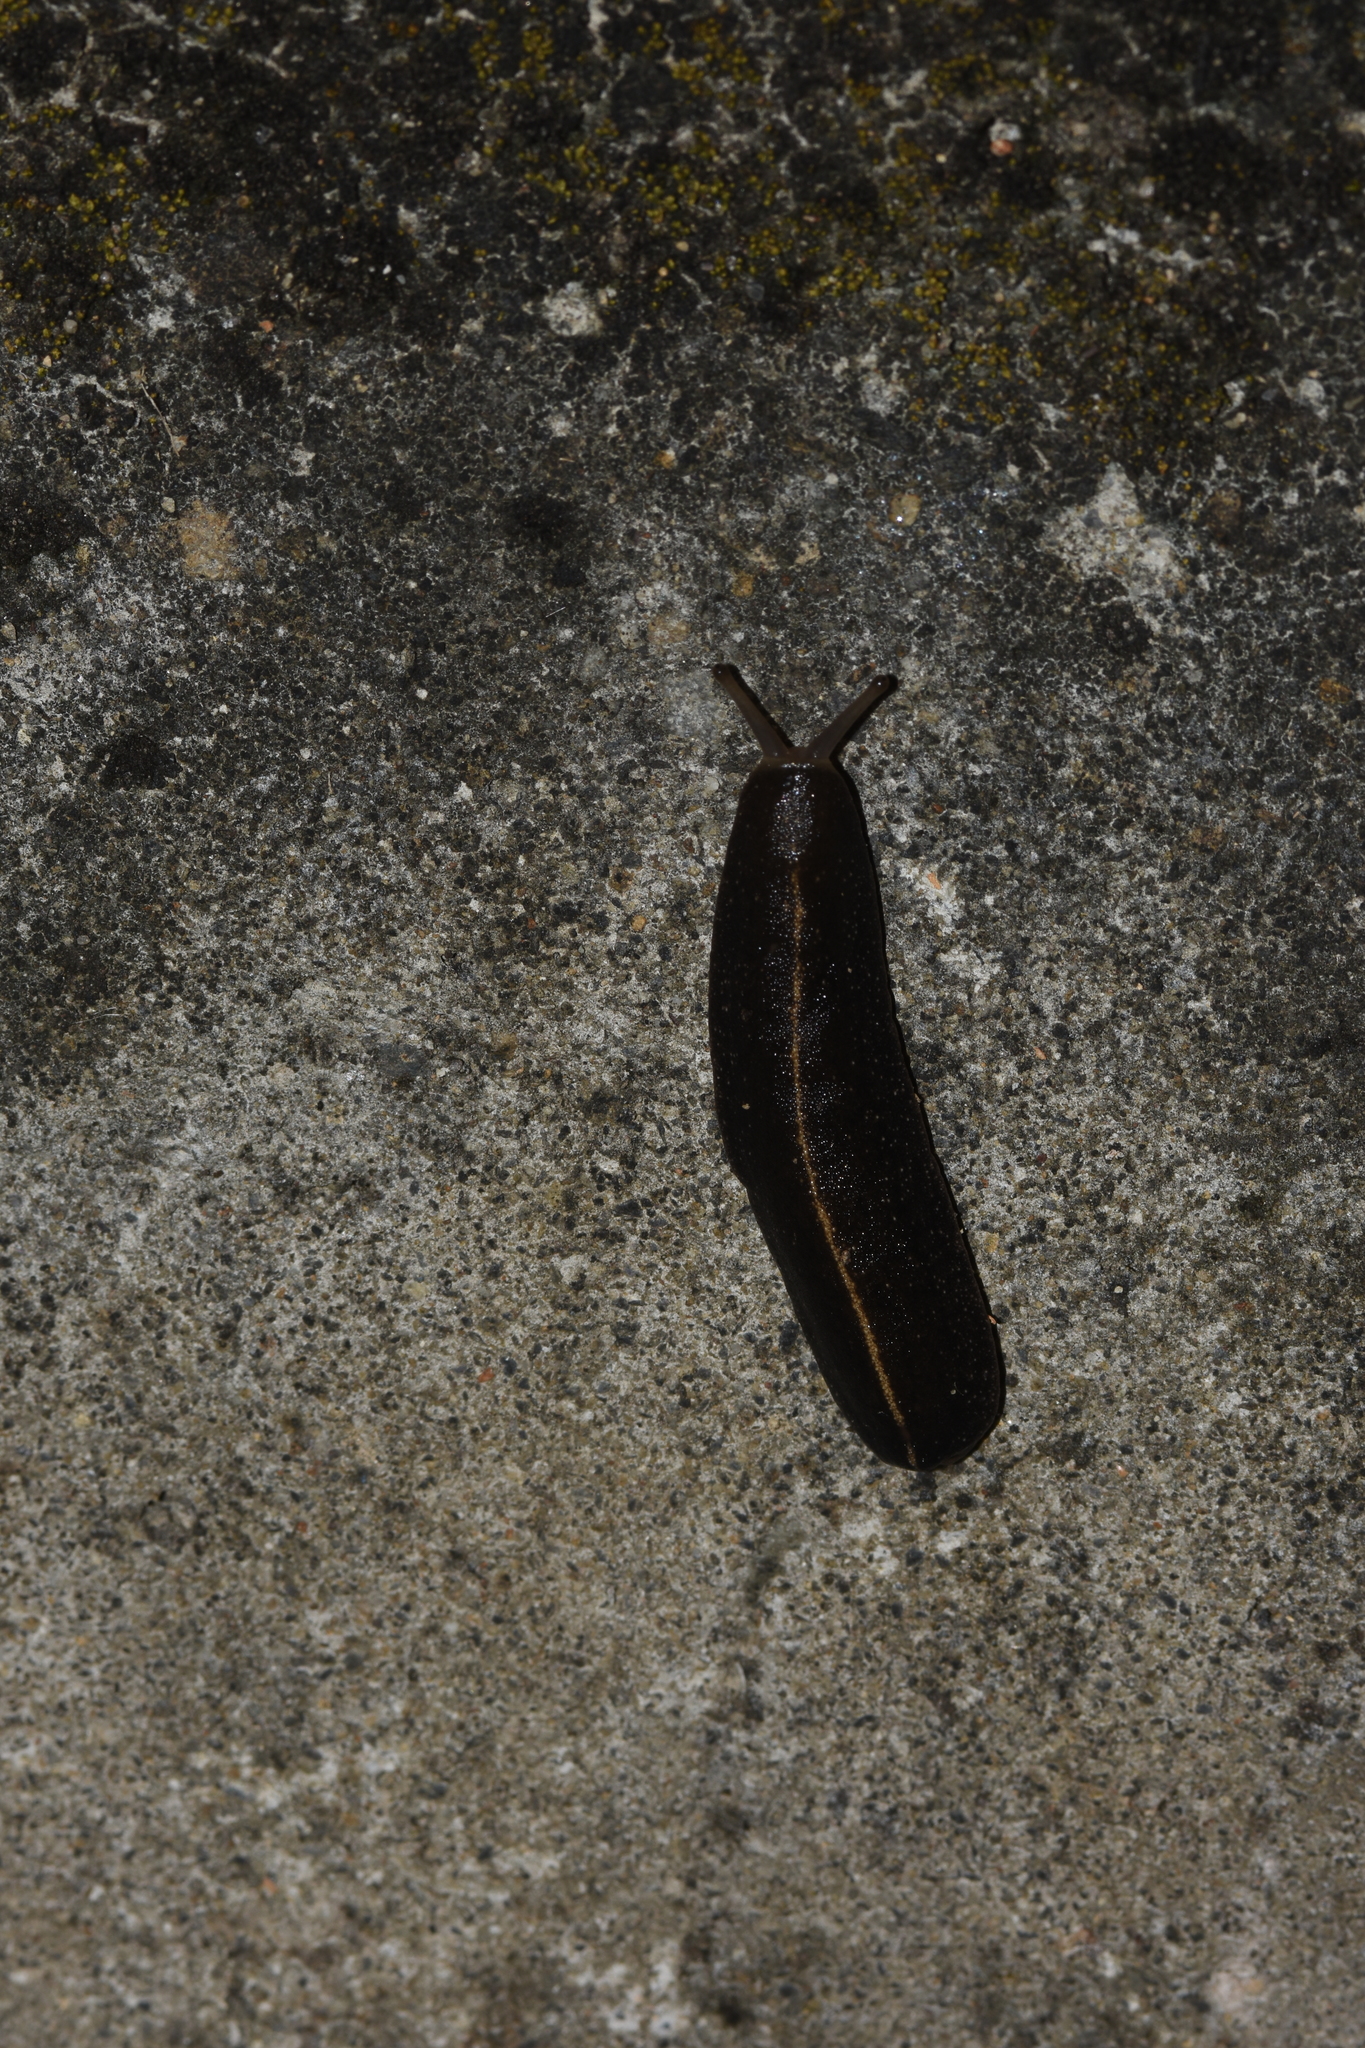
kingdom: Animalia
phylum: Mollusca
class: Gastropoda
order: Systellommatophora
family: Veronicellidae
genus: Laevicaulis
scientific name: Laevicaulis alte
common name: Tropical leatherleaf
